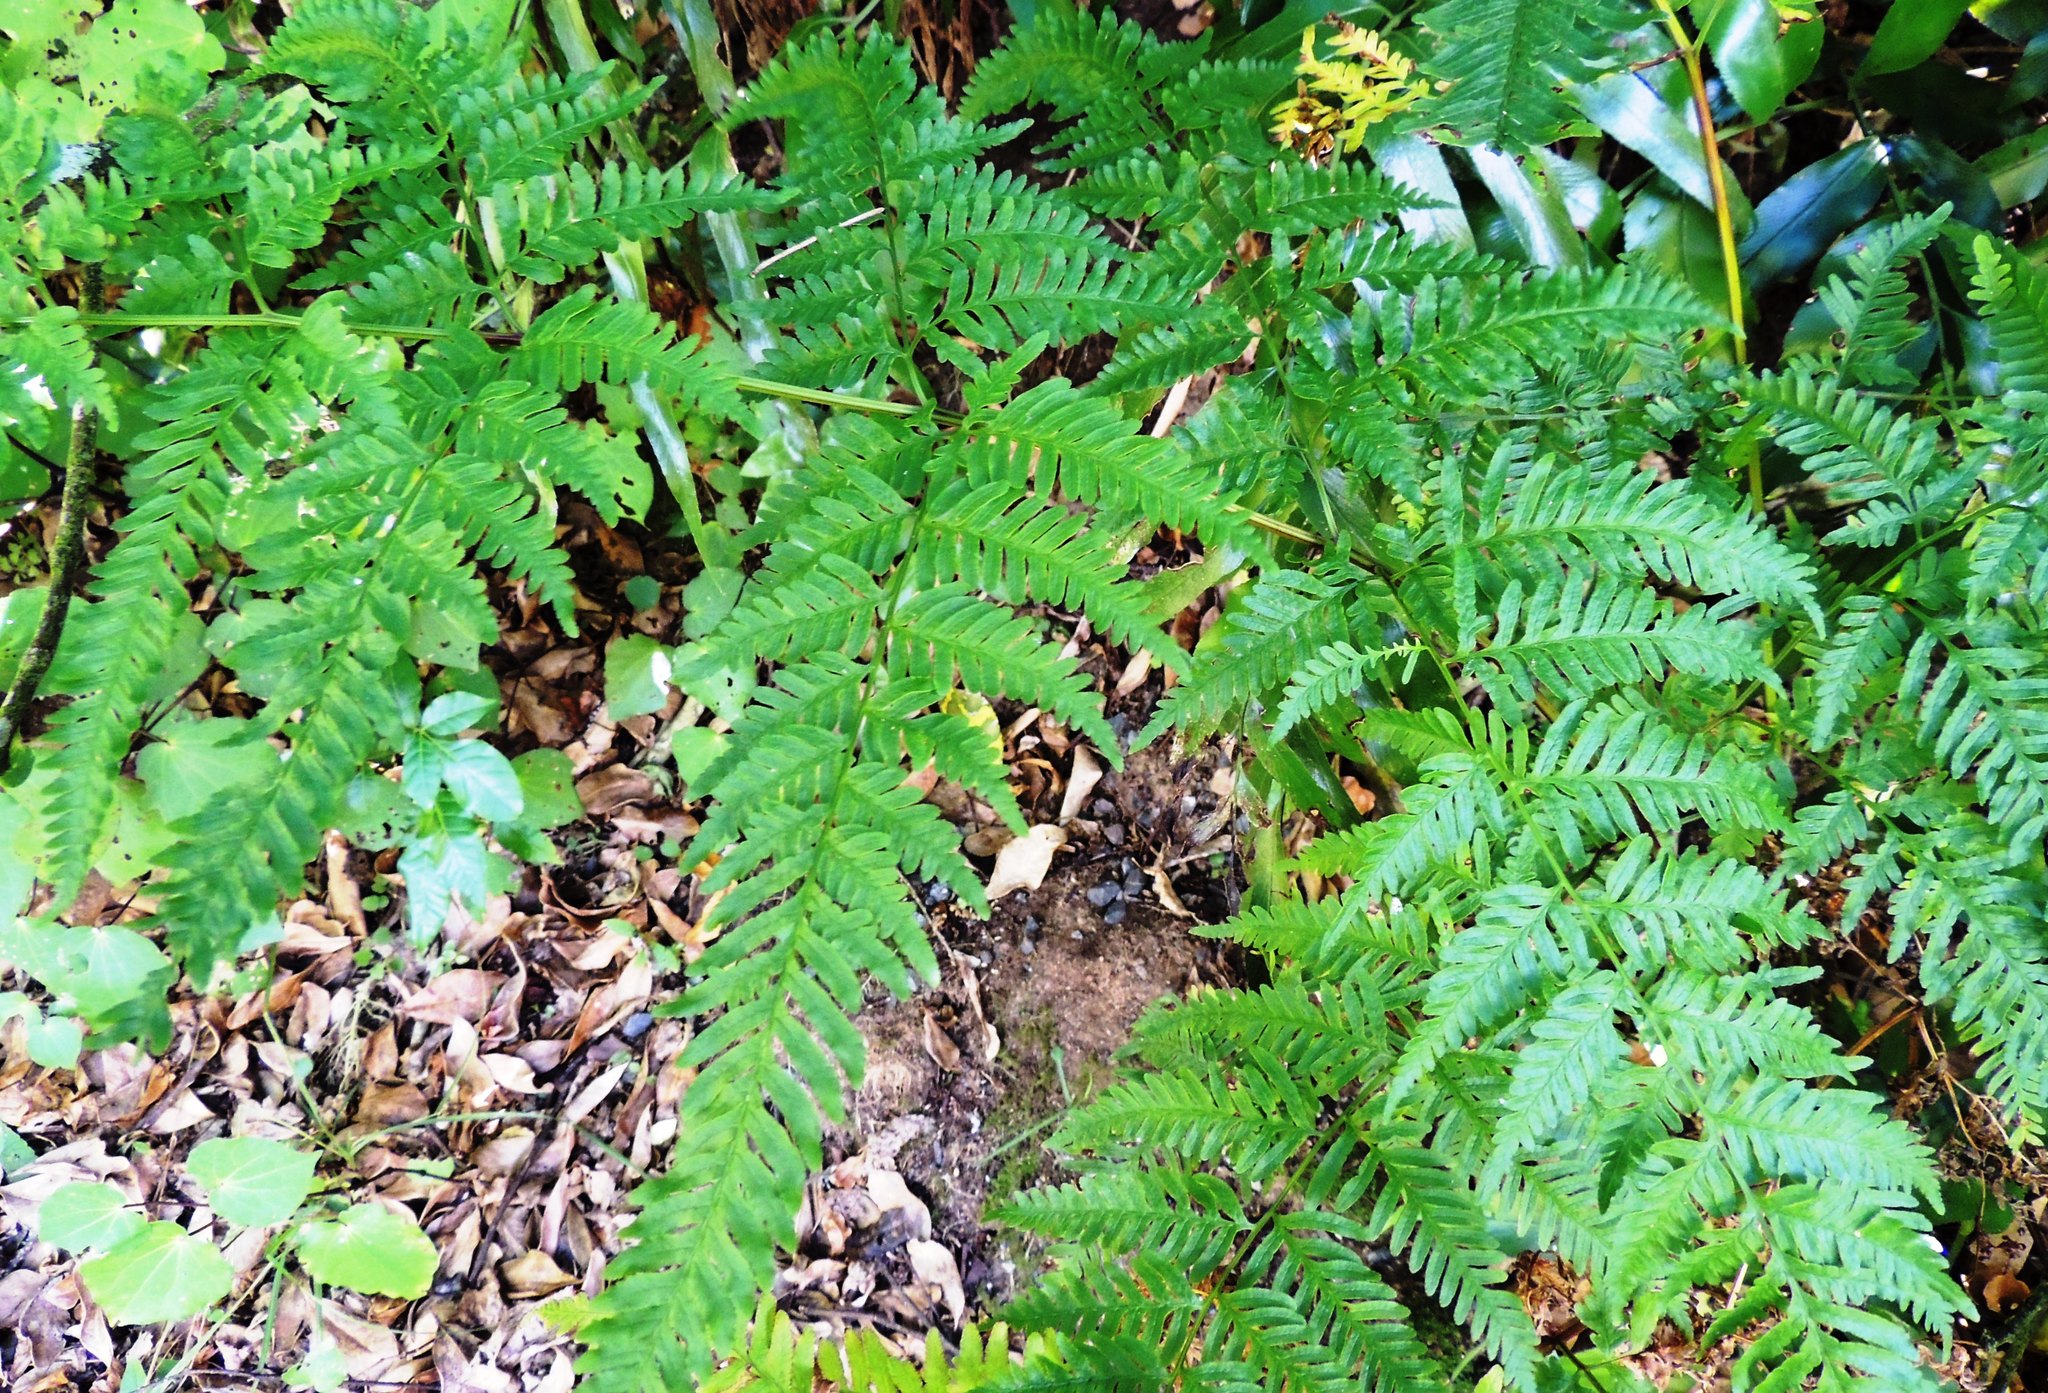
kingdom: Plantae
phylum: Tracheophyta
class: Polypodiopsida
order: Polypodiales
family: Pteridaceae
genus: Pteris
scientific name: Pteris tremula
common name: Australian brake
